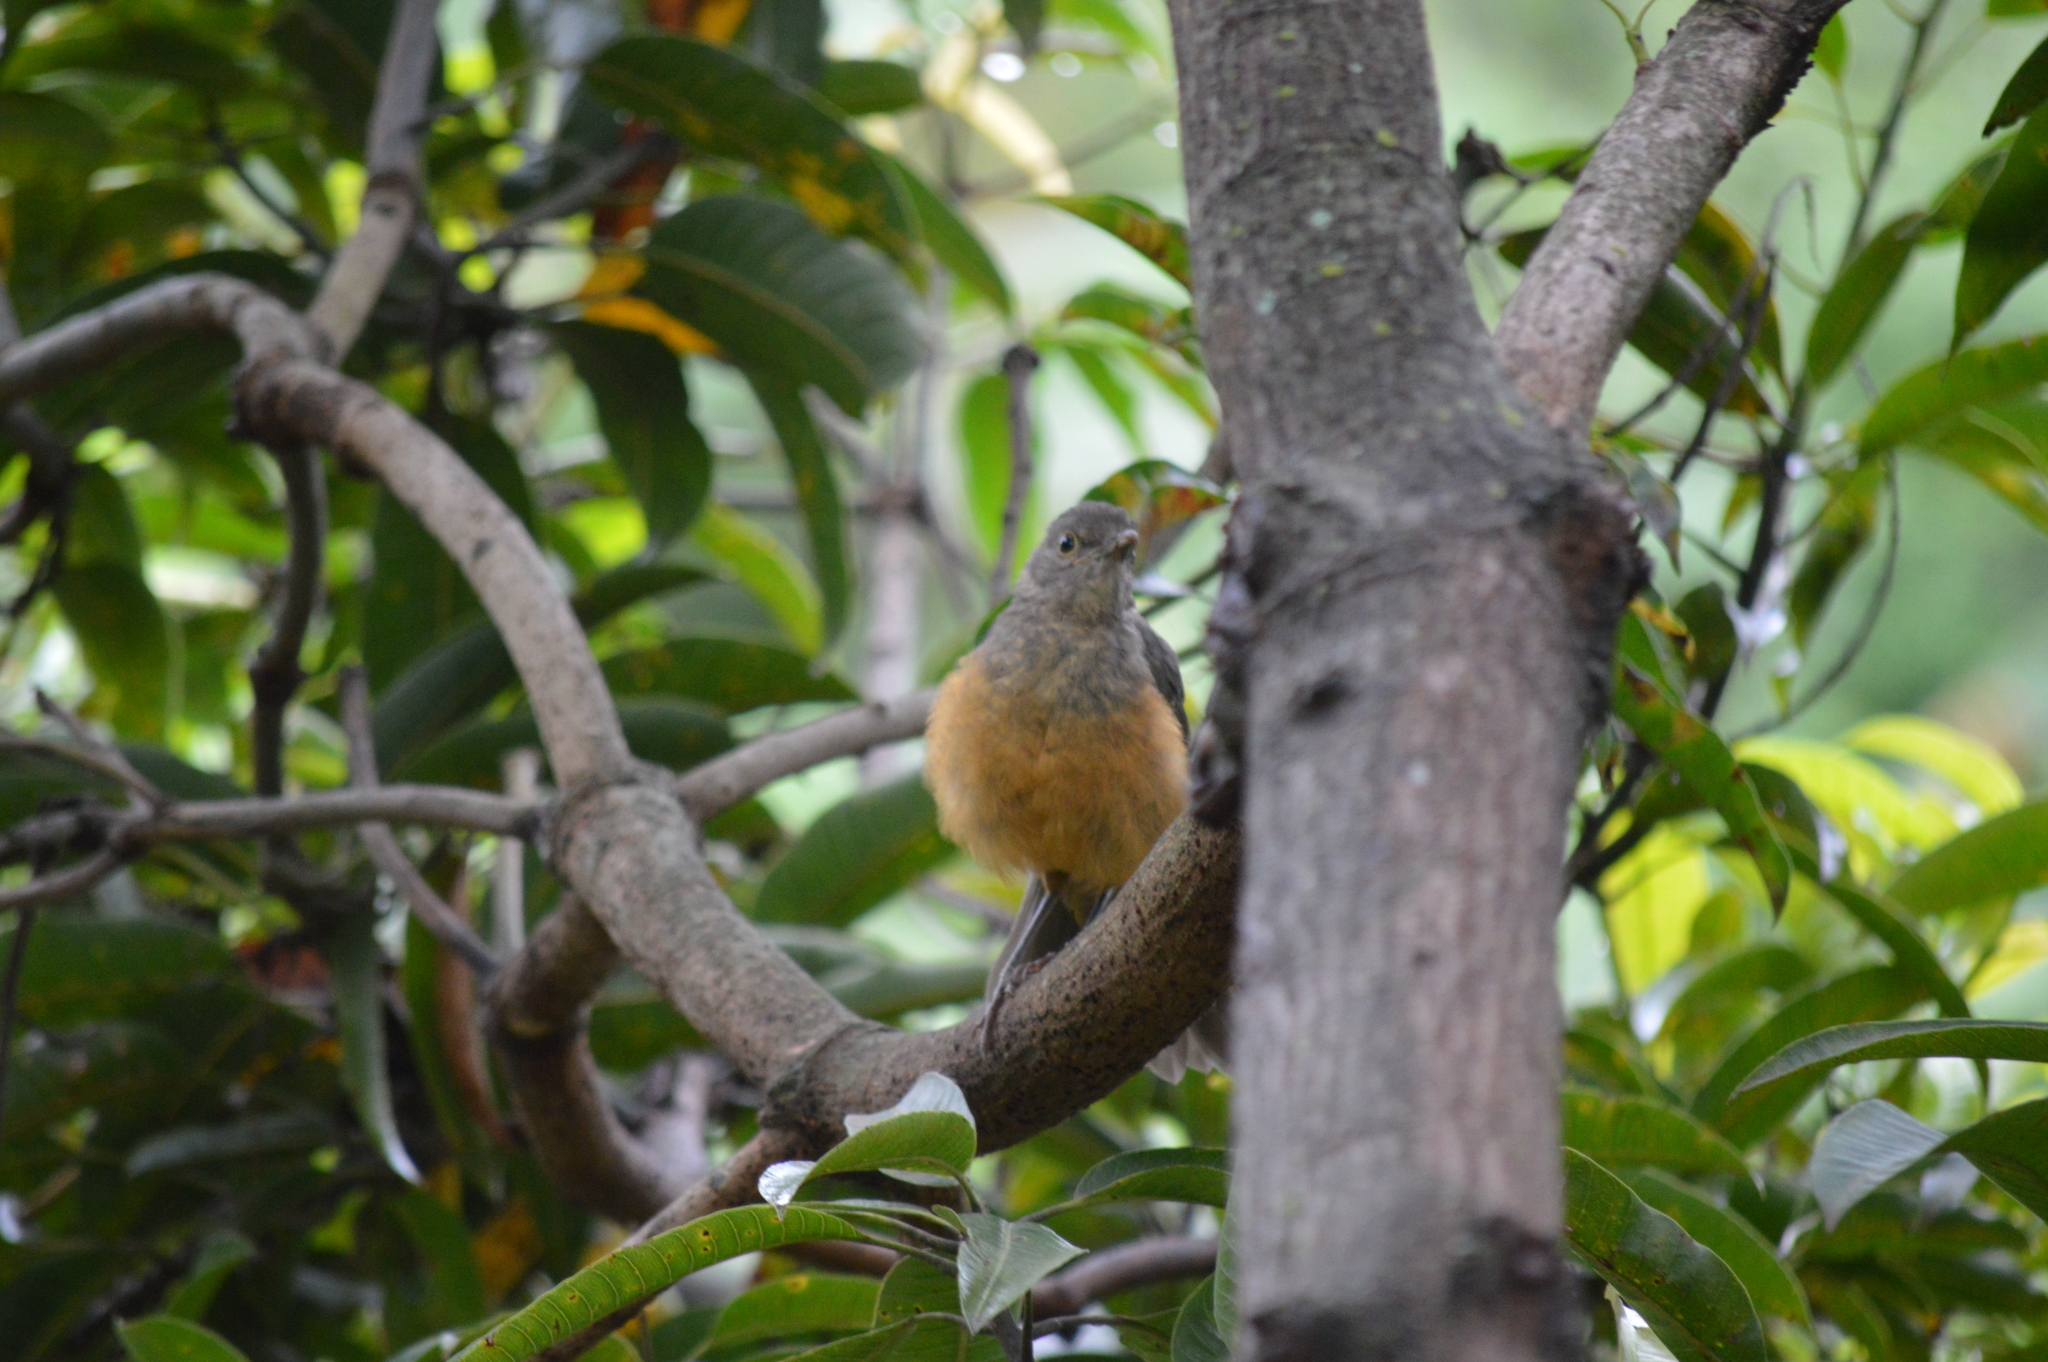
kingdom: Animalia
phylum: Chordata
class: Aves
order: Passeriformes
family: Turdidae
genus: Turdus
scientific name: Turdus rufiventris
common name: Rufous-bellied thrush
